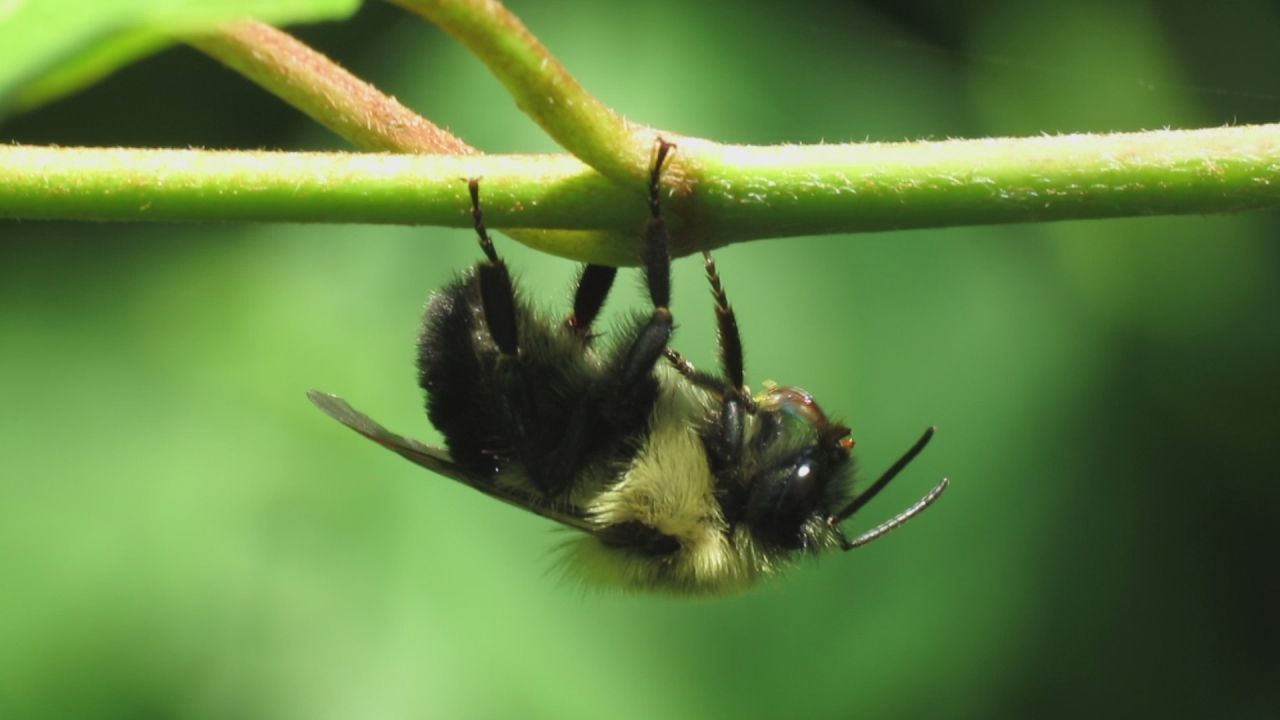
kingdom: Animalia
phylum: Arthropoda
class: Insecta
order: Hymenoptera
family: Apidae
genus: Bombus
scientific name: Bombus impatiens
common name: Common eastern bumble bee
